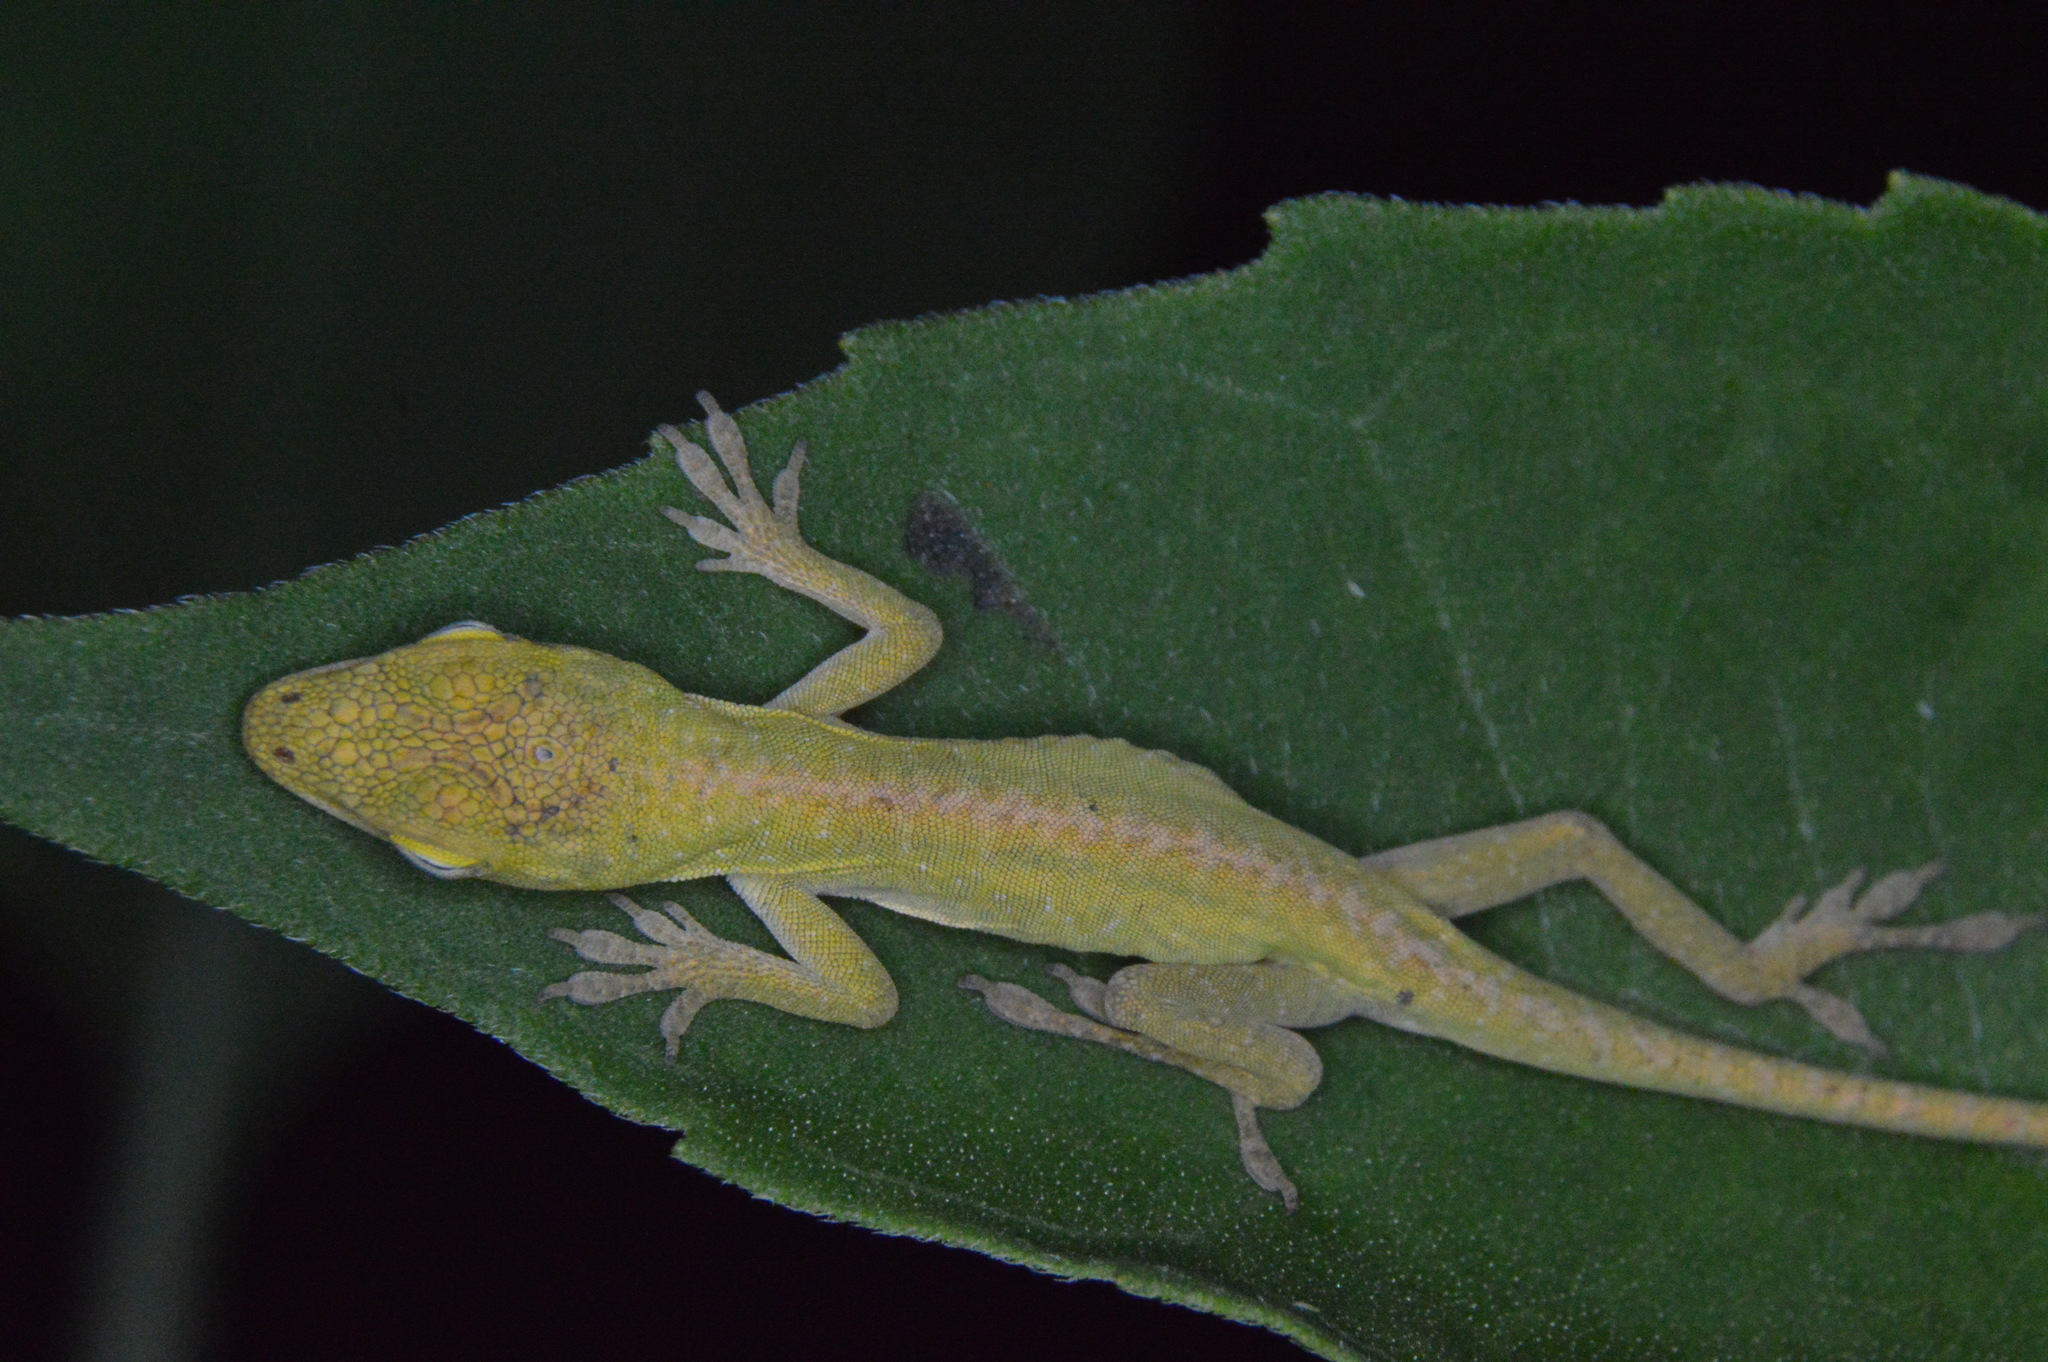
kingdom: Animalia
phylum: Chordata
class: Squamata
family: Dactyloidae
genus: Anolis
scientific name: Anolis carolinensis
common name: Green anole
